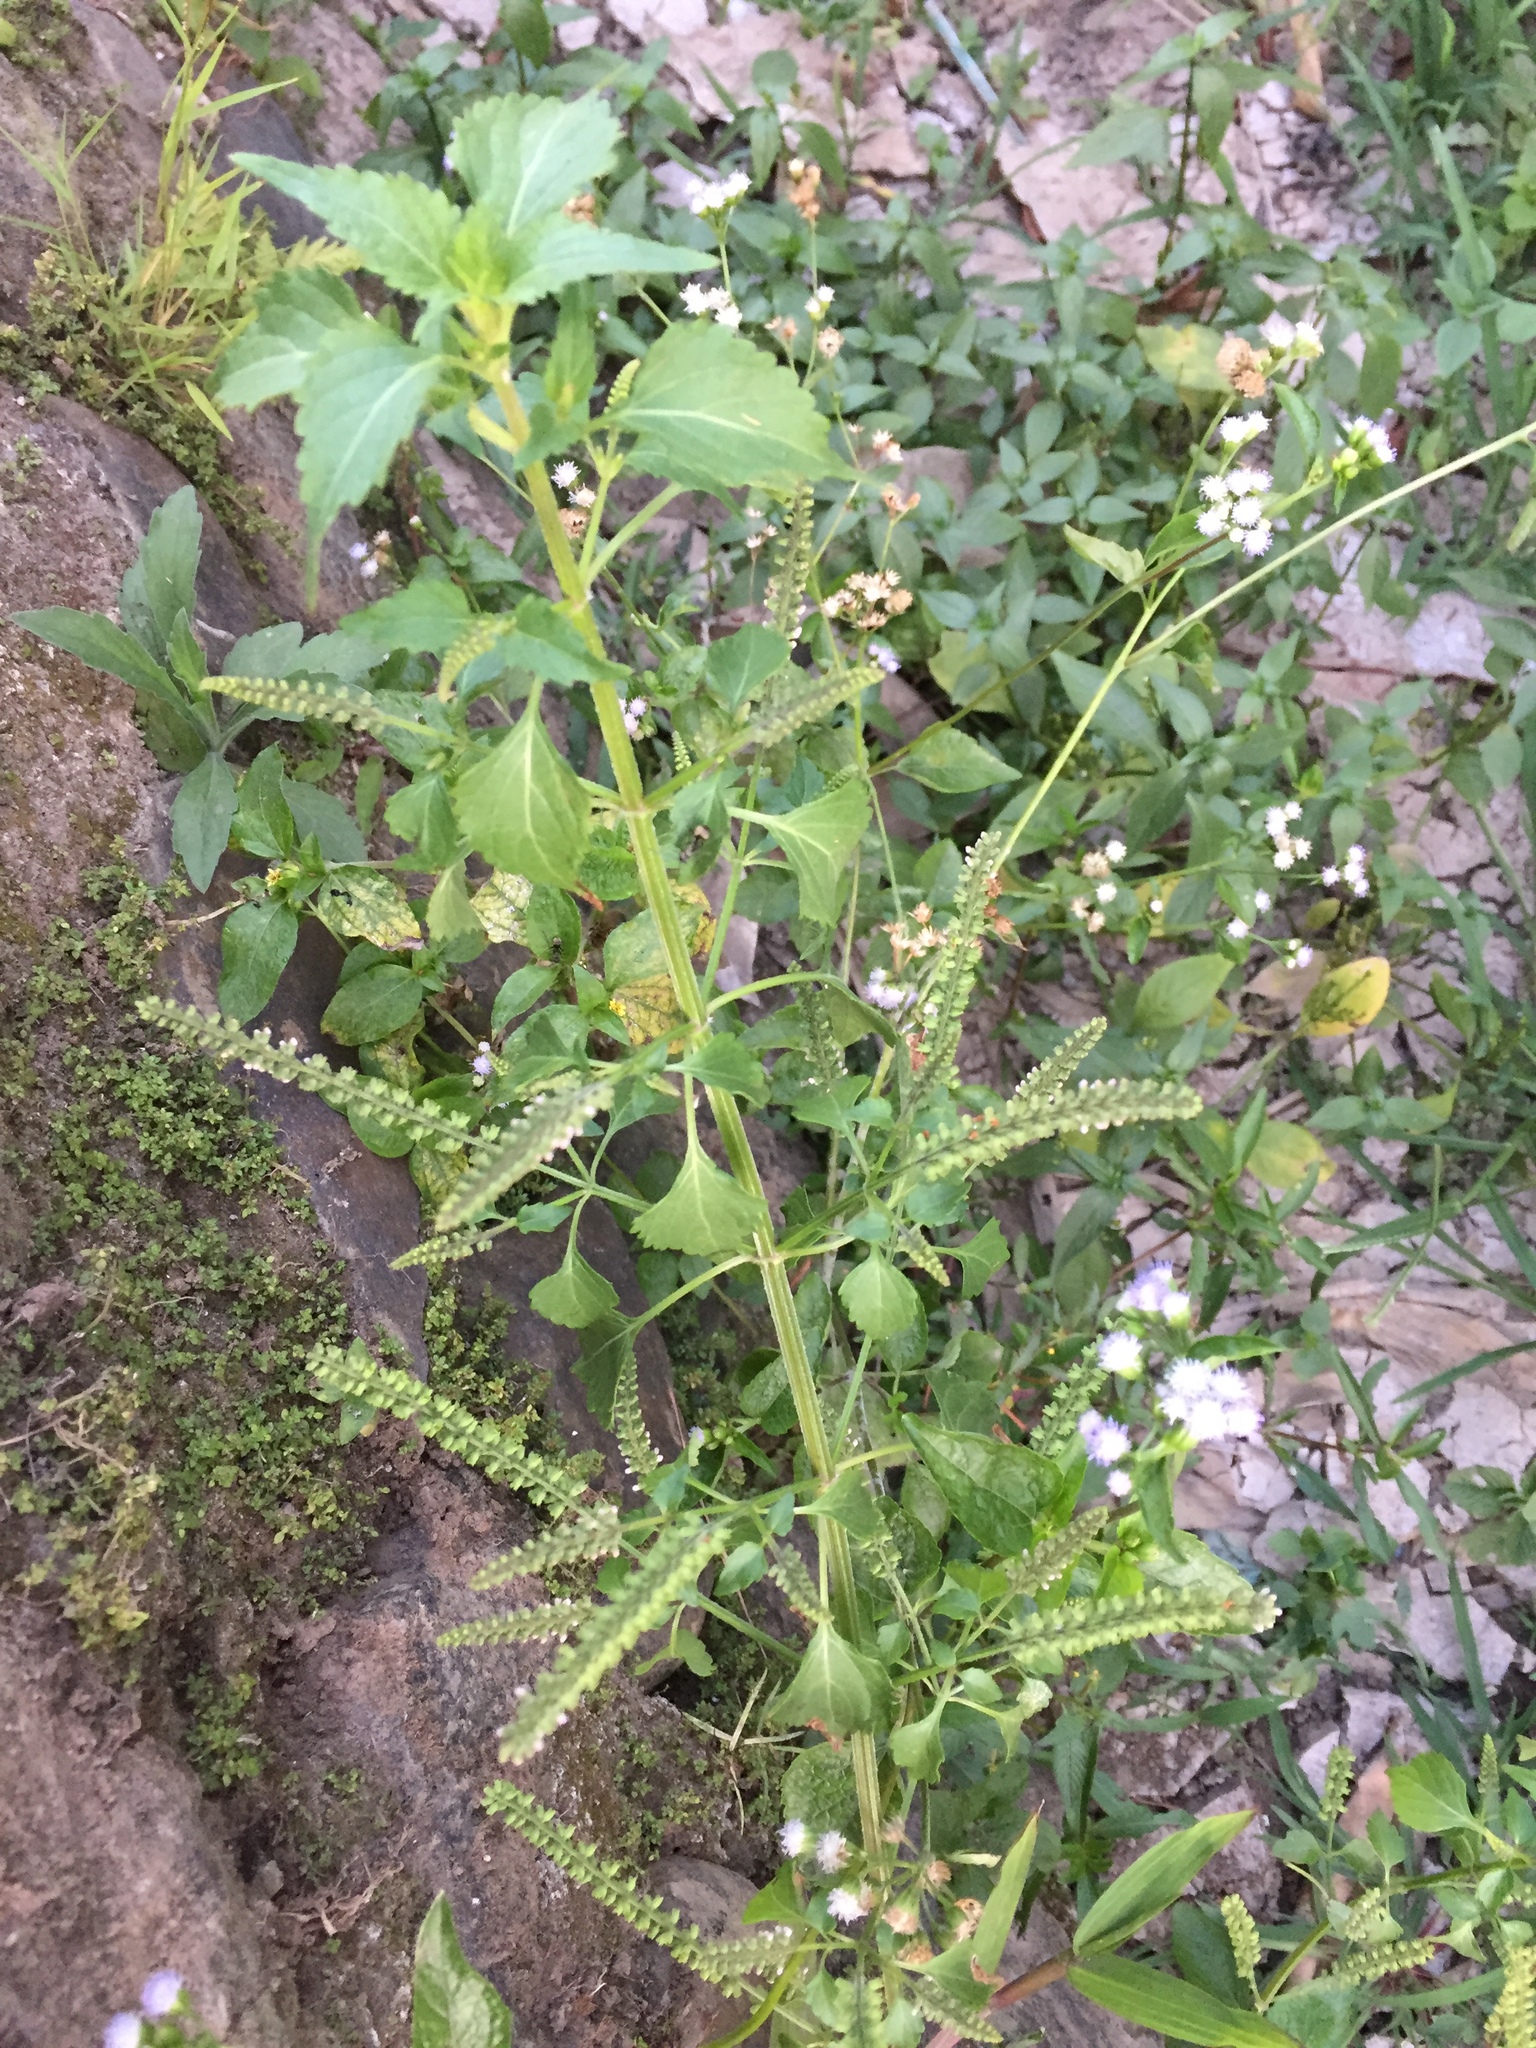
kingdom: Plantae
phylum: Tracheophyta
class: Magnoliopsida
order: Lamiales
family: Lamiaceae
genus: Basilicum
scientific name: Basilicum polystachyon
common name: Musk-basil
